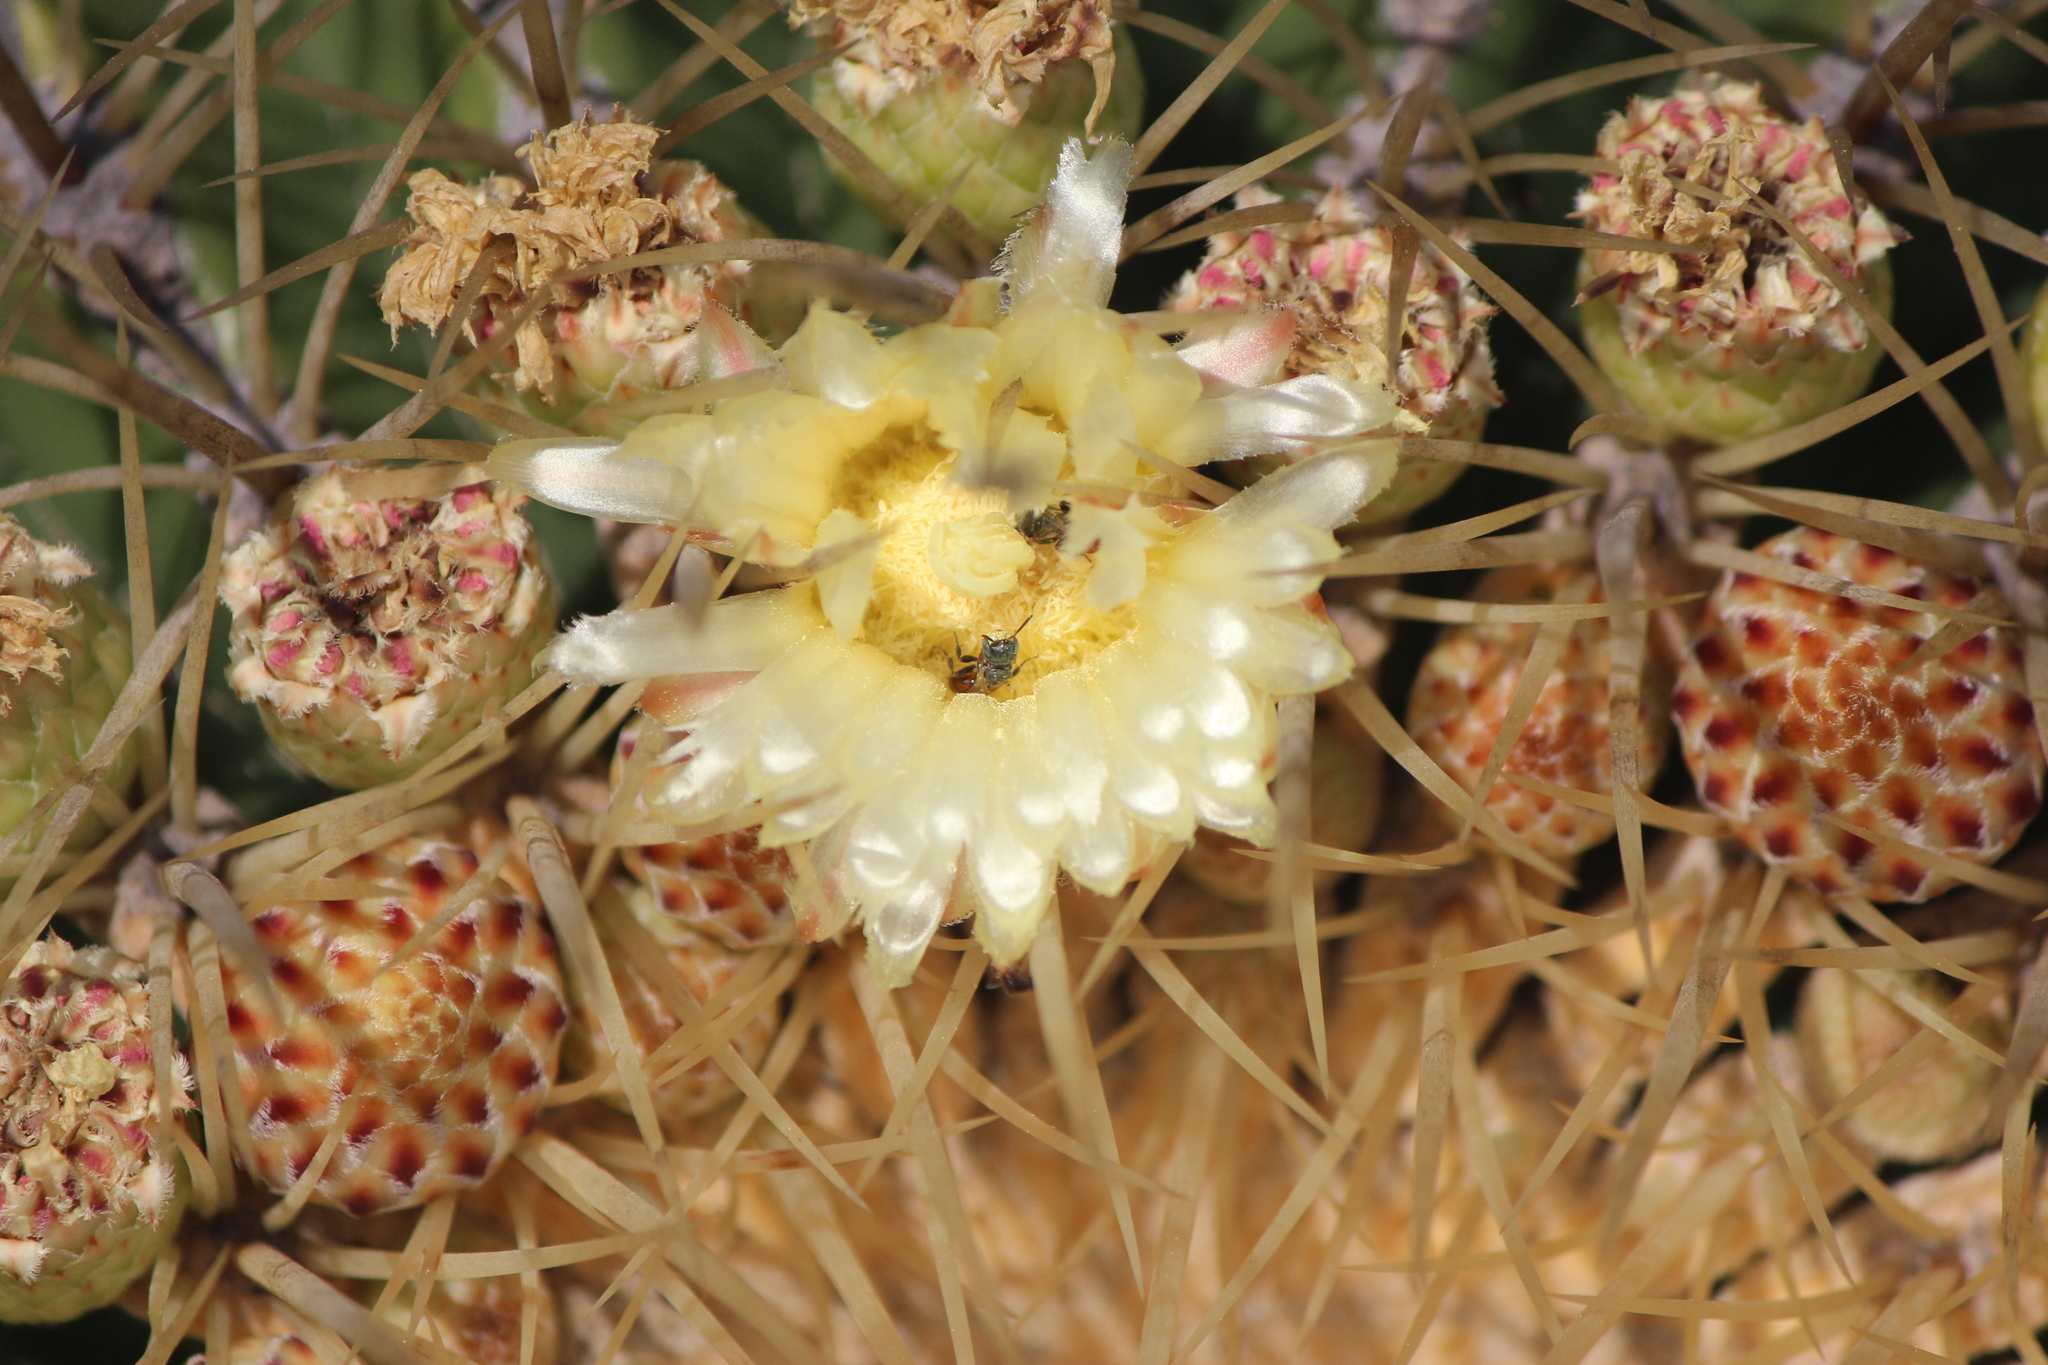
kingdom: Animalia
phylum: Arthropoda
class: Insecta
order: Hymenoptera
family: Andrenidae
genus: Macrotera
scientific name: Macrotera
